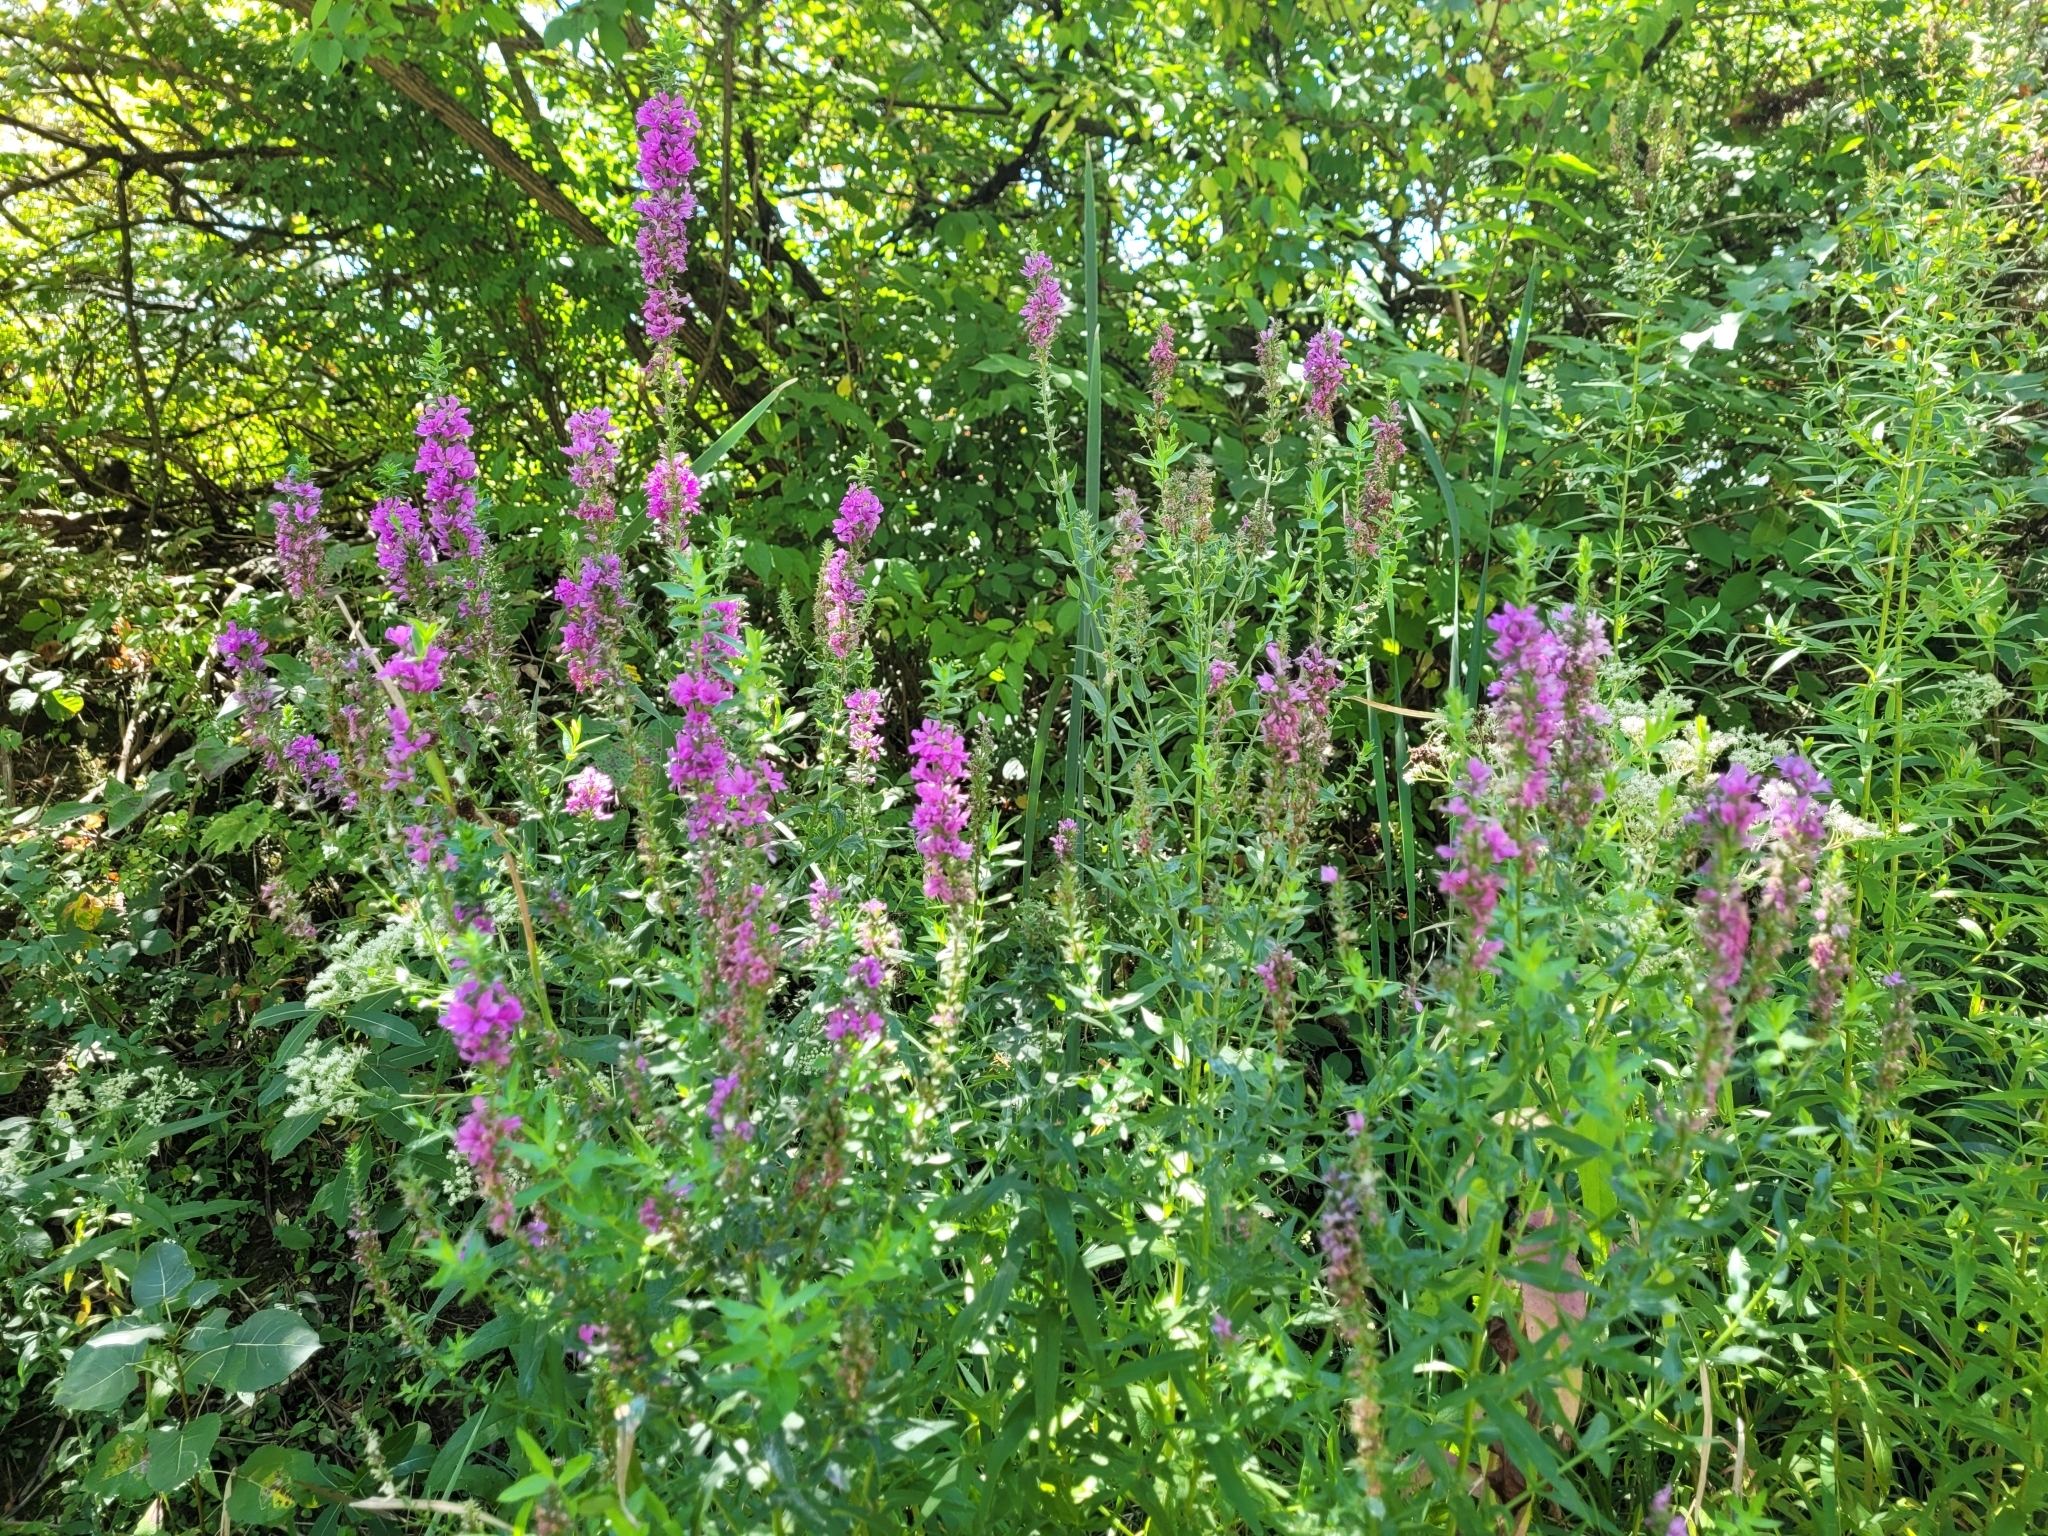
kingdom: Plantae
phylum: Tracheophyta
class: Magnoliopsida
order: Myrtales
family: Lythraceae
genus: Lythrum
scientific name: Lythrum salicaria
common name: Purple loosestrife
